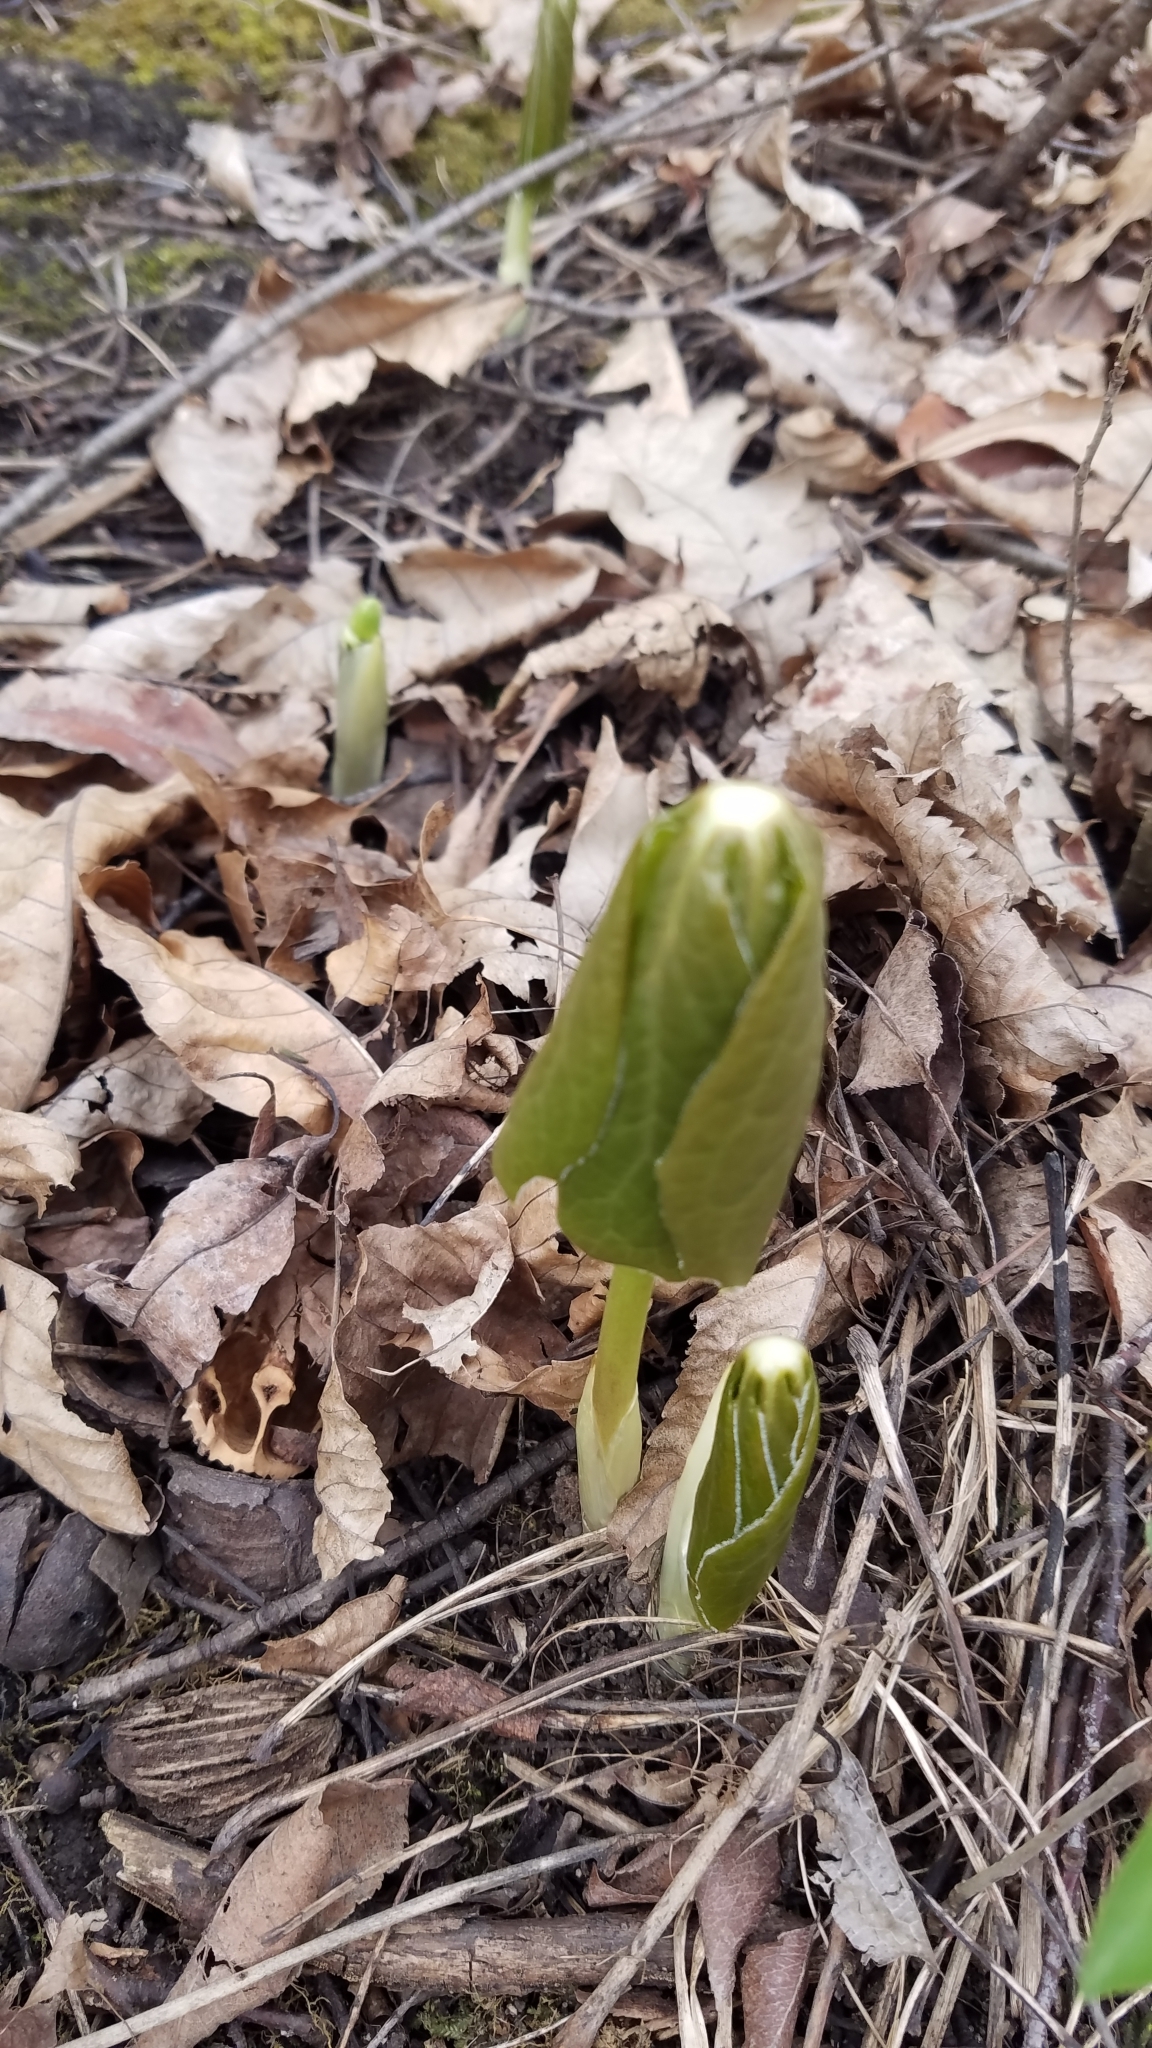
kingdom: Plantae
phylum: Tracheophyta
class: Magnoliopsida
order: Ranunculales
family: Berberidaceae
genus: Podophyllum
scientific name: Podophyllum peltatum
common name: Wild mandrake
